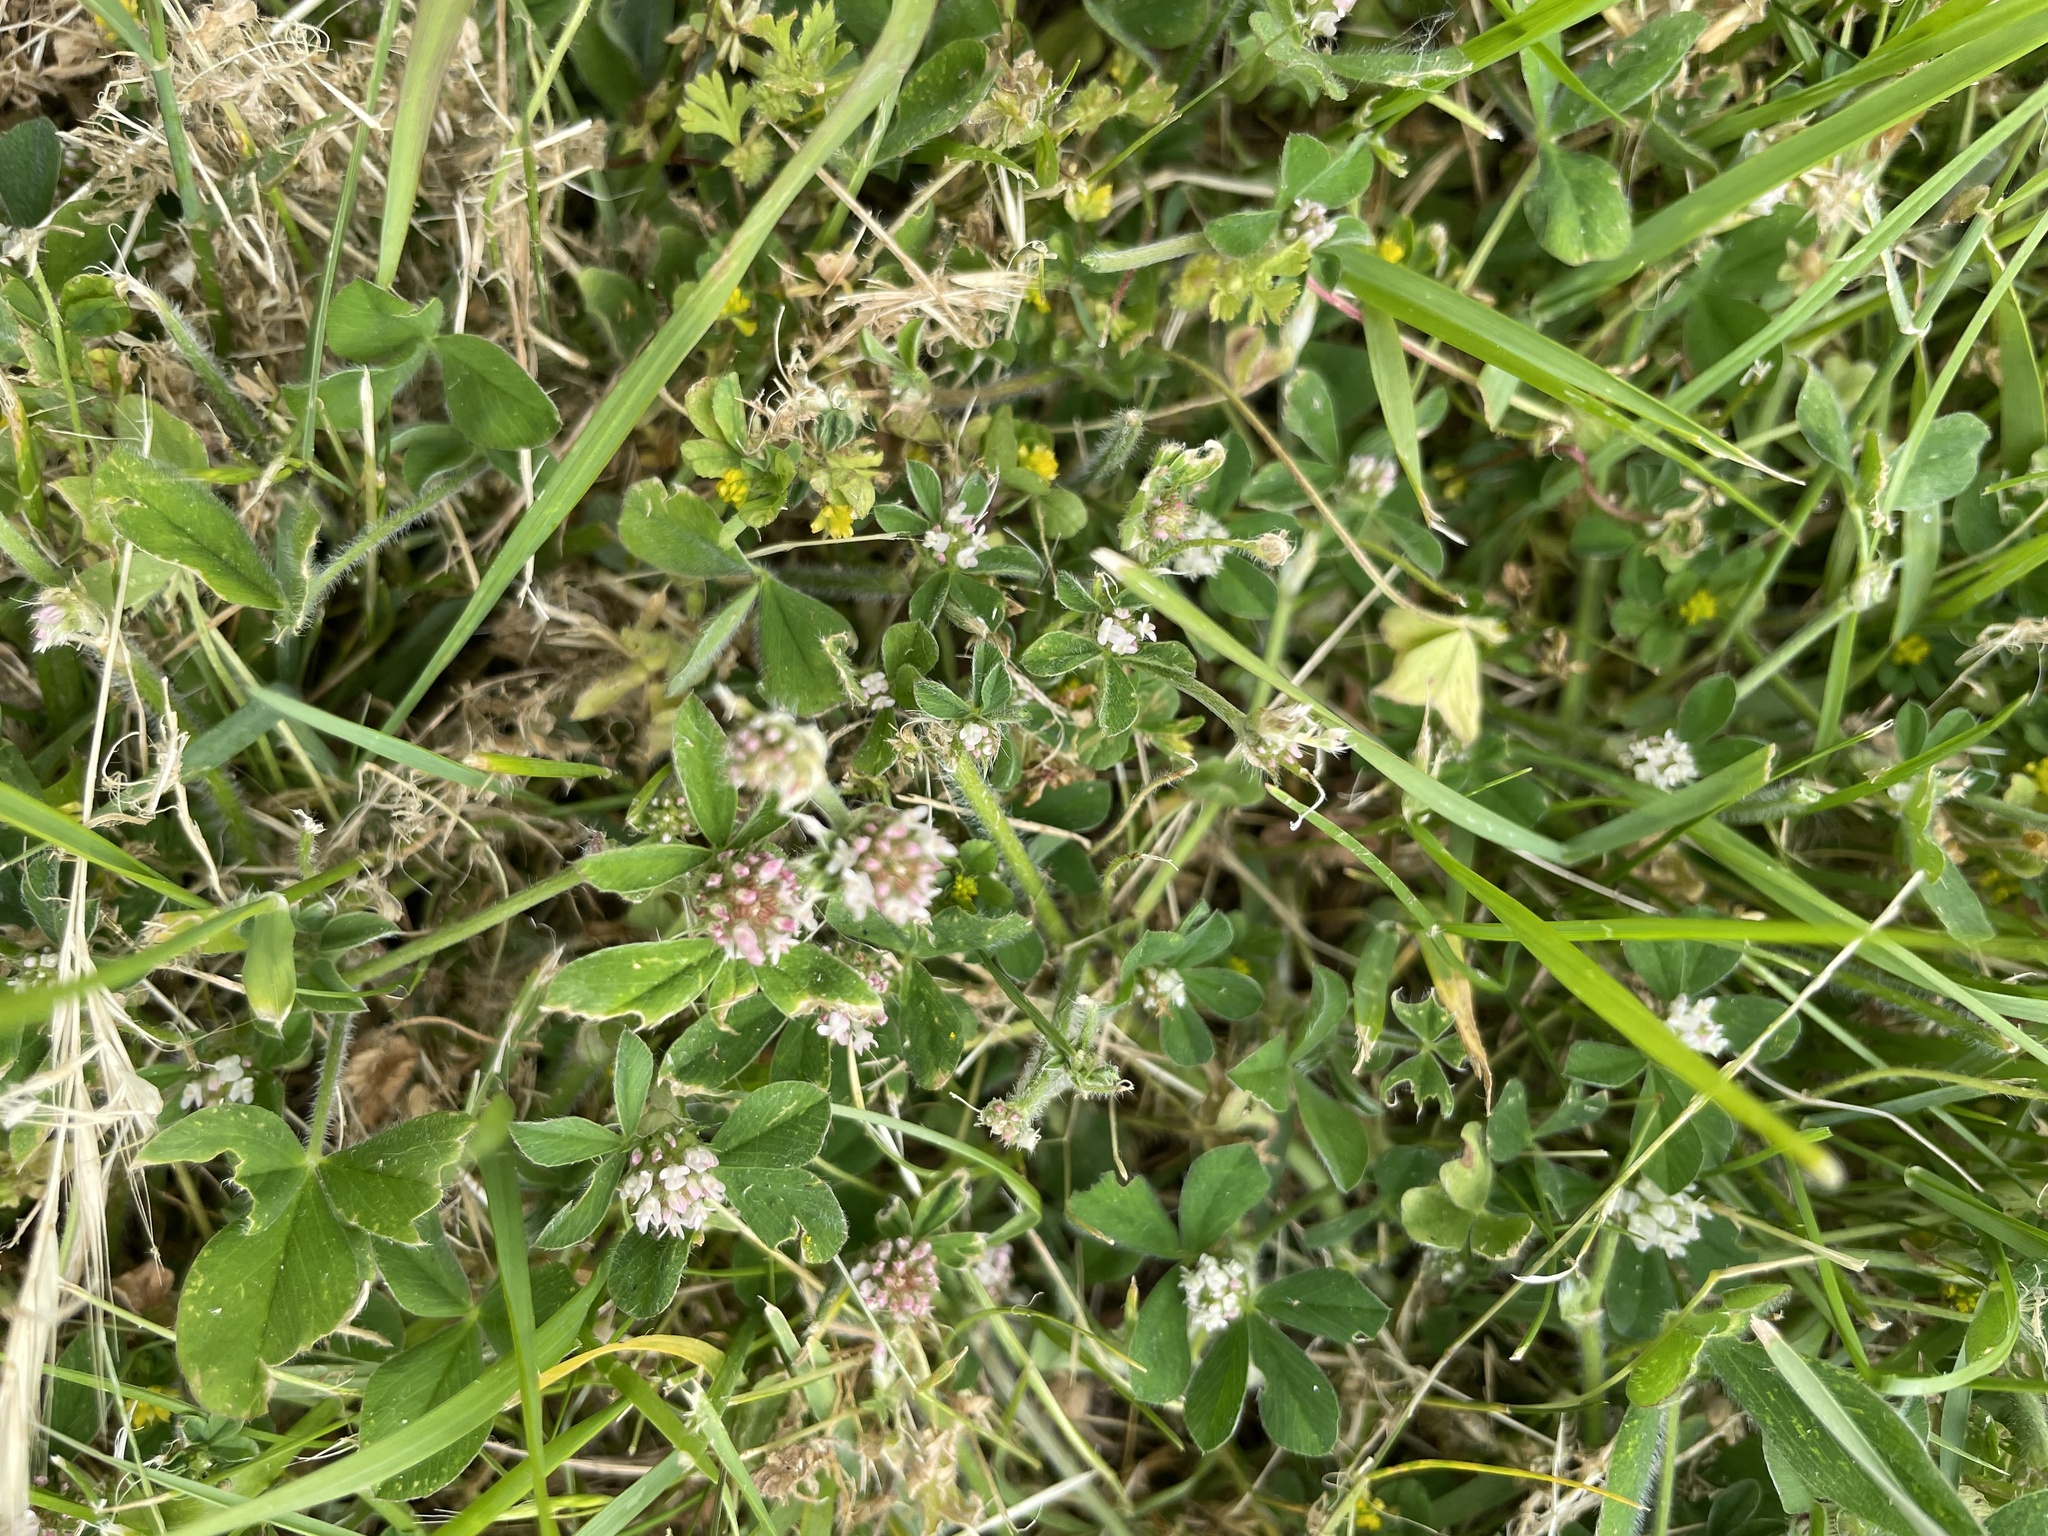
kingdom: Plantae
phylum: Tracheophyta
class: Magnoliopsida
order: Fabales
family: Fabaceae
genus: Trifolium
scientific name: Trifolium striatum
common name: Knotted clover
